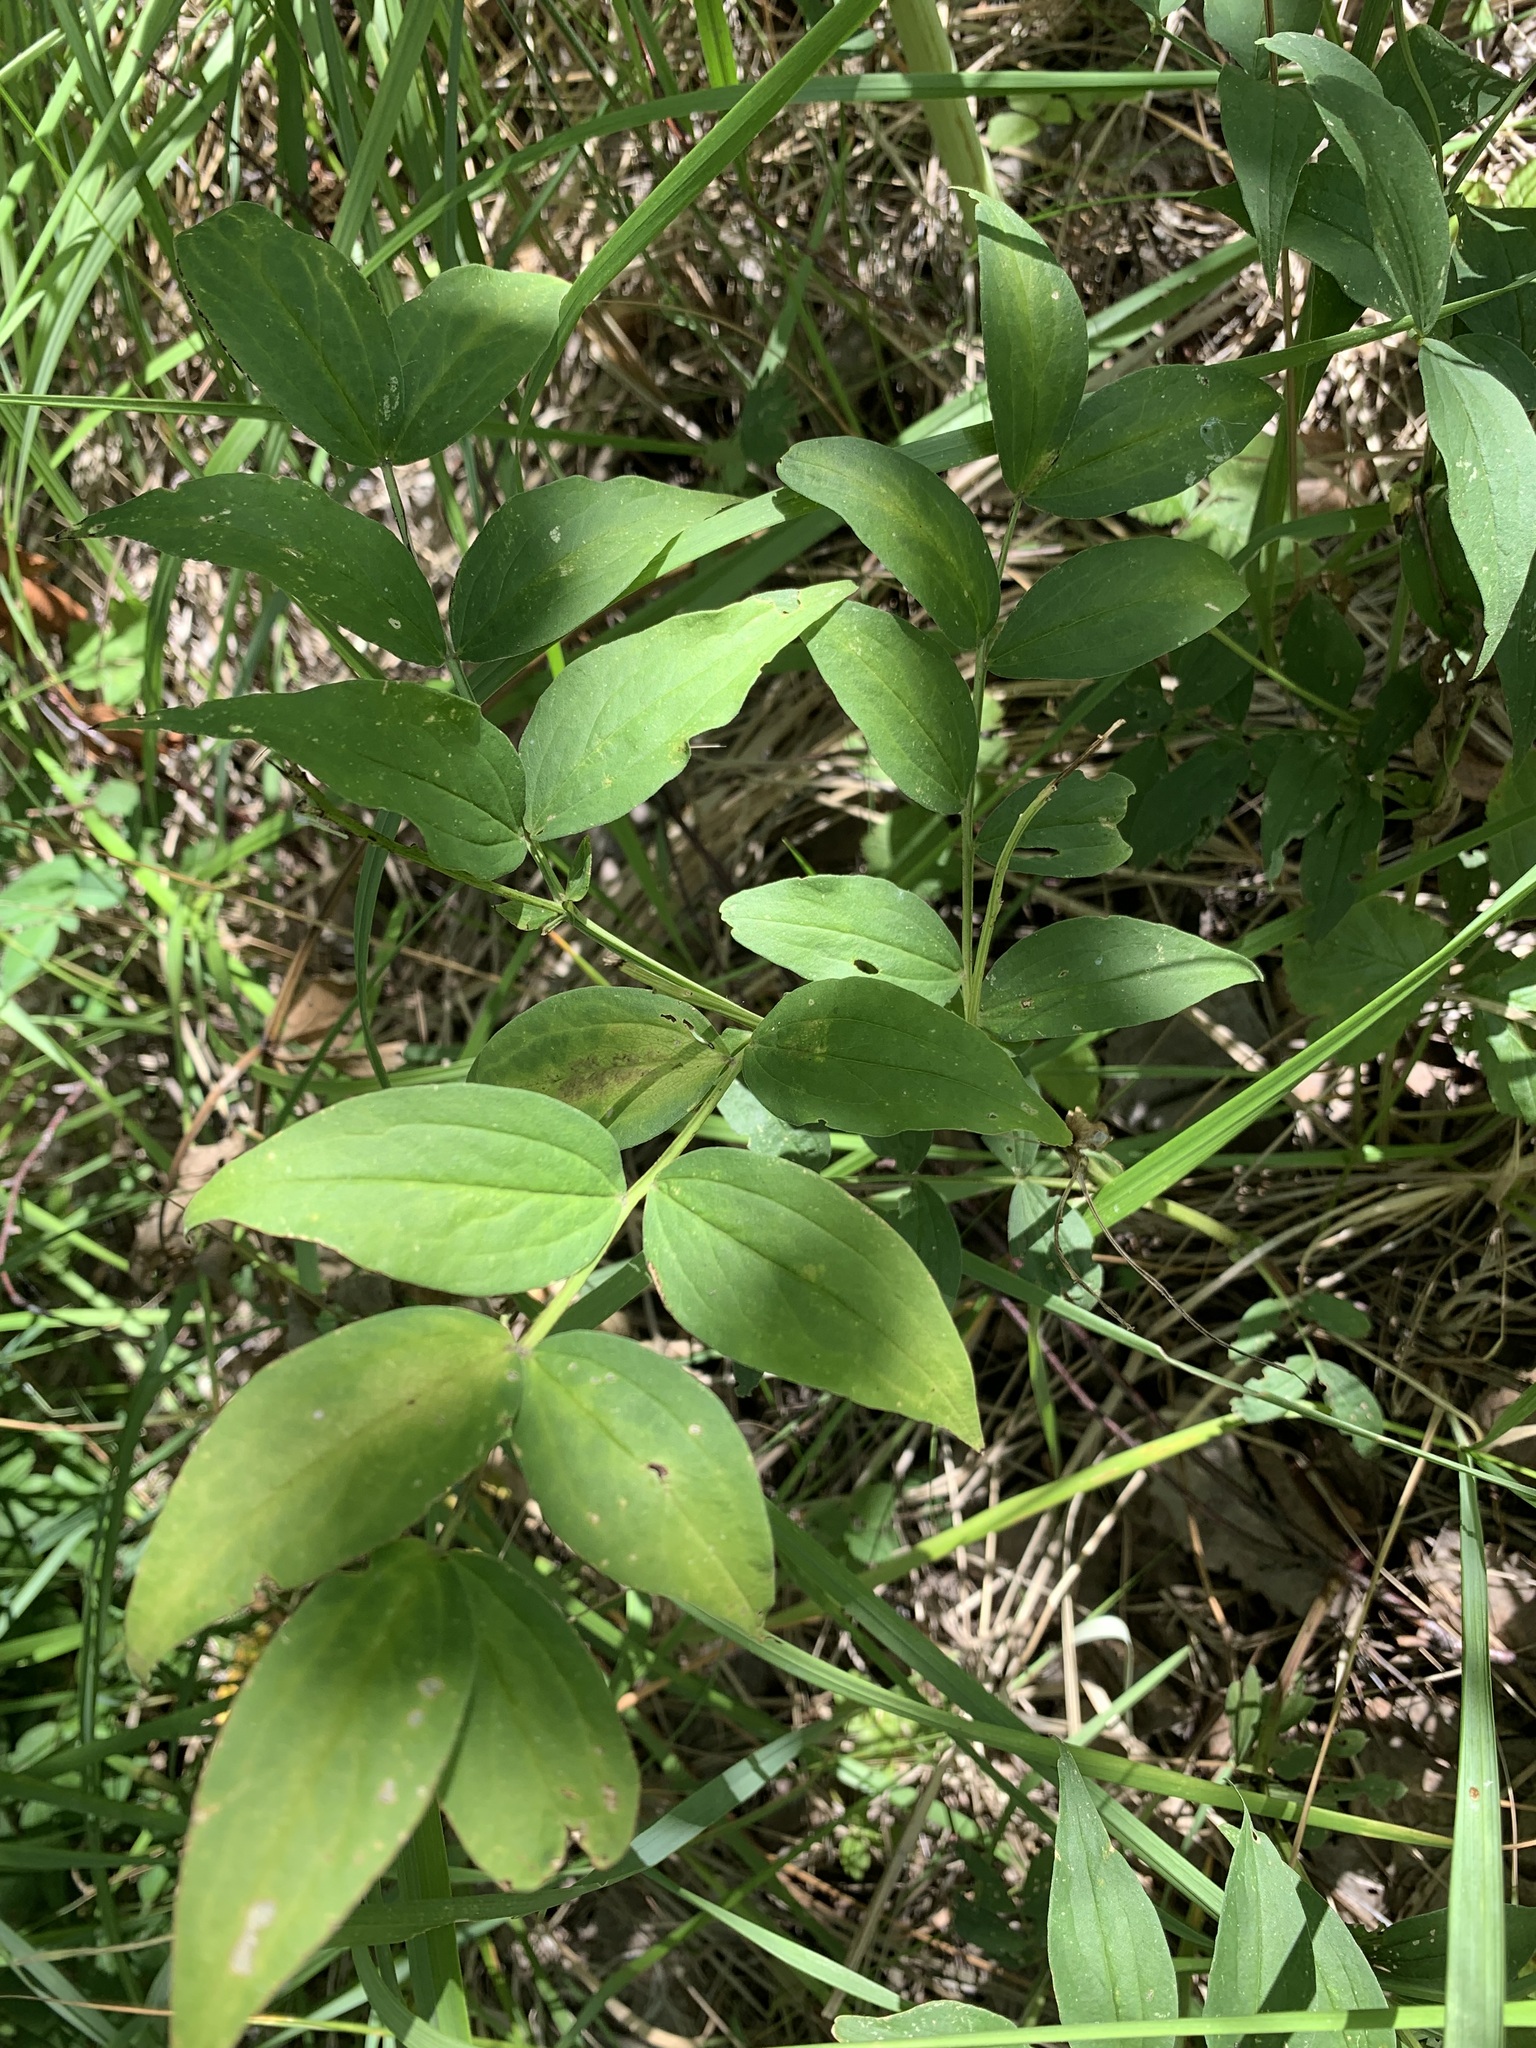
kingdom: Plantae
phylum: Tracheophyta
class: Magnoliopsida
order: Fabales
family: Fabaceae
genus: Lathyrus
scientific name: Lathyrus vernus
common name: Spring pea
